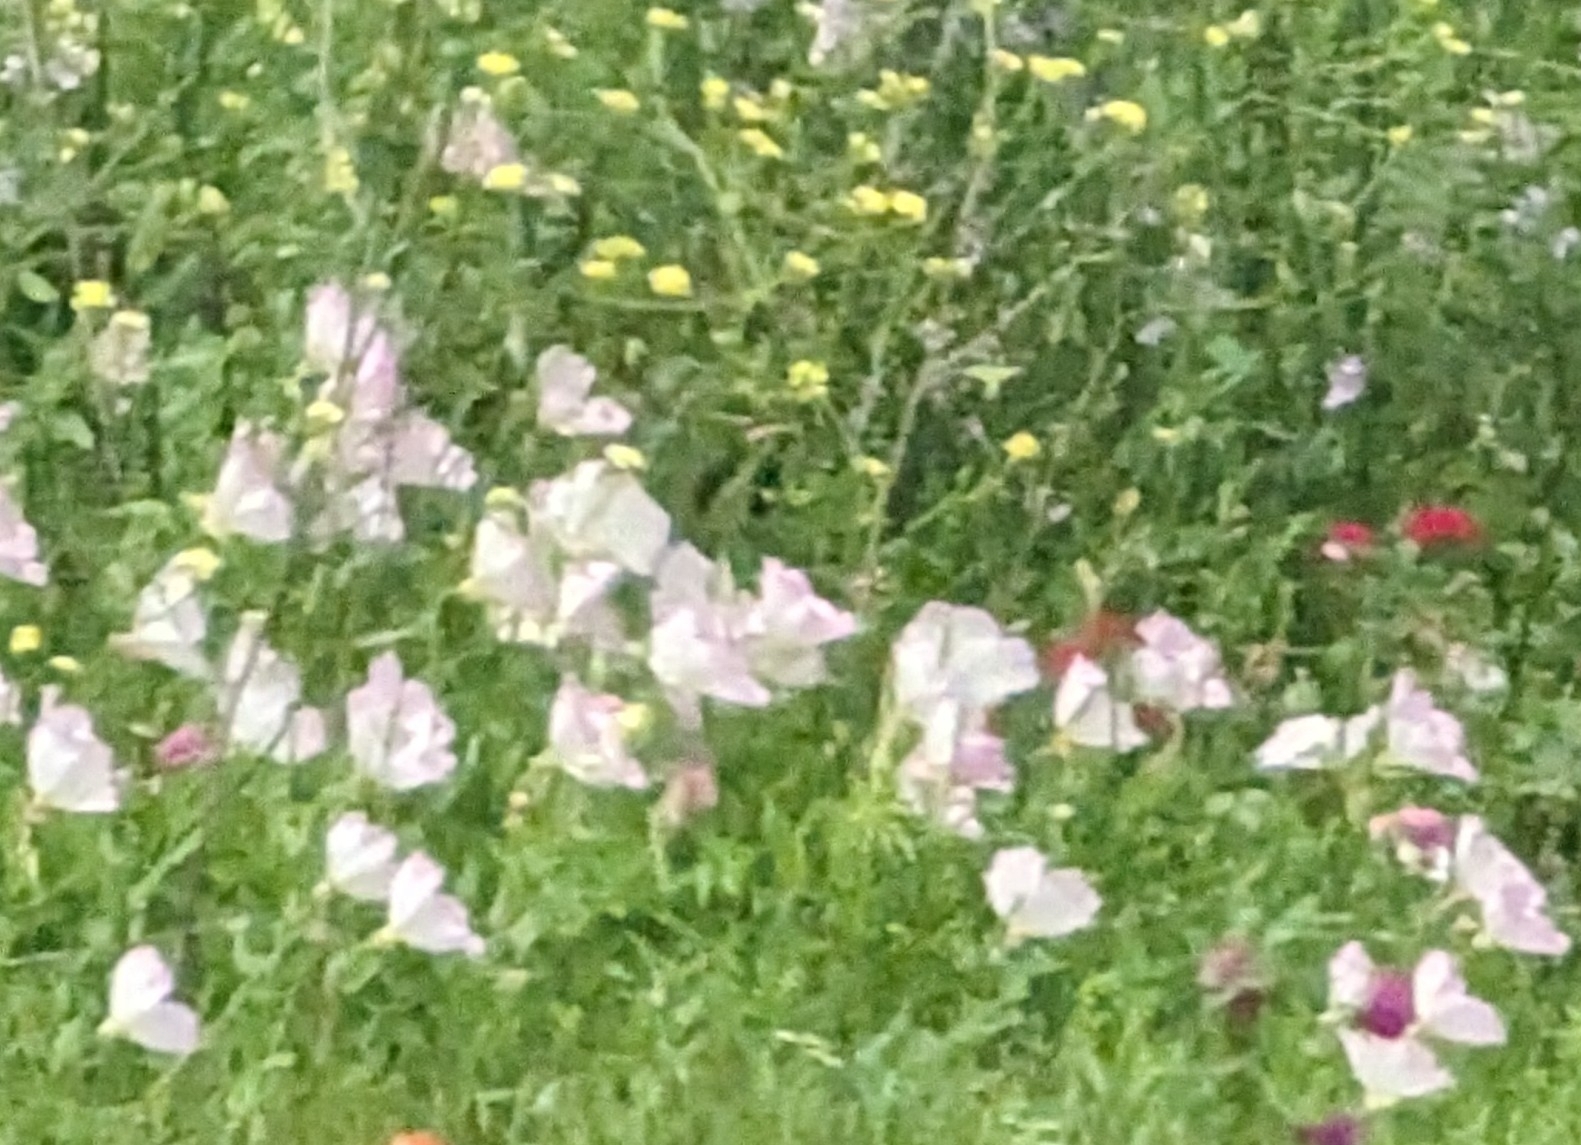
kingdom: Plantae
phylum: Tracheophyta
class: Magnoliopsida
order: Myrtales
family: Onagraceae
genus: Oenothera
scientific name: Oenothera speciosa
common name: White evening-primrose
